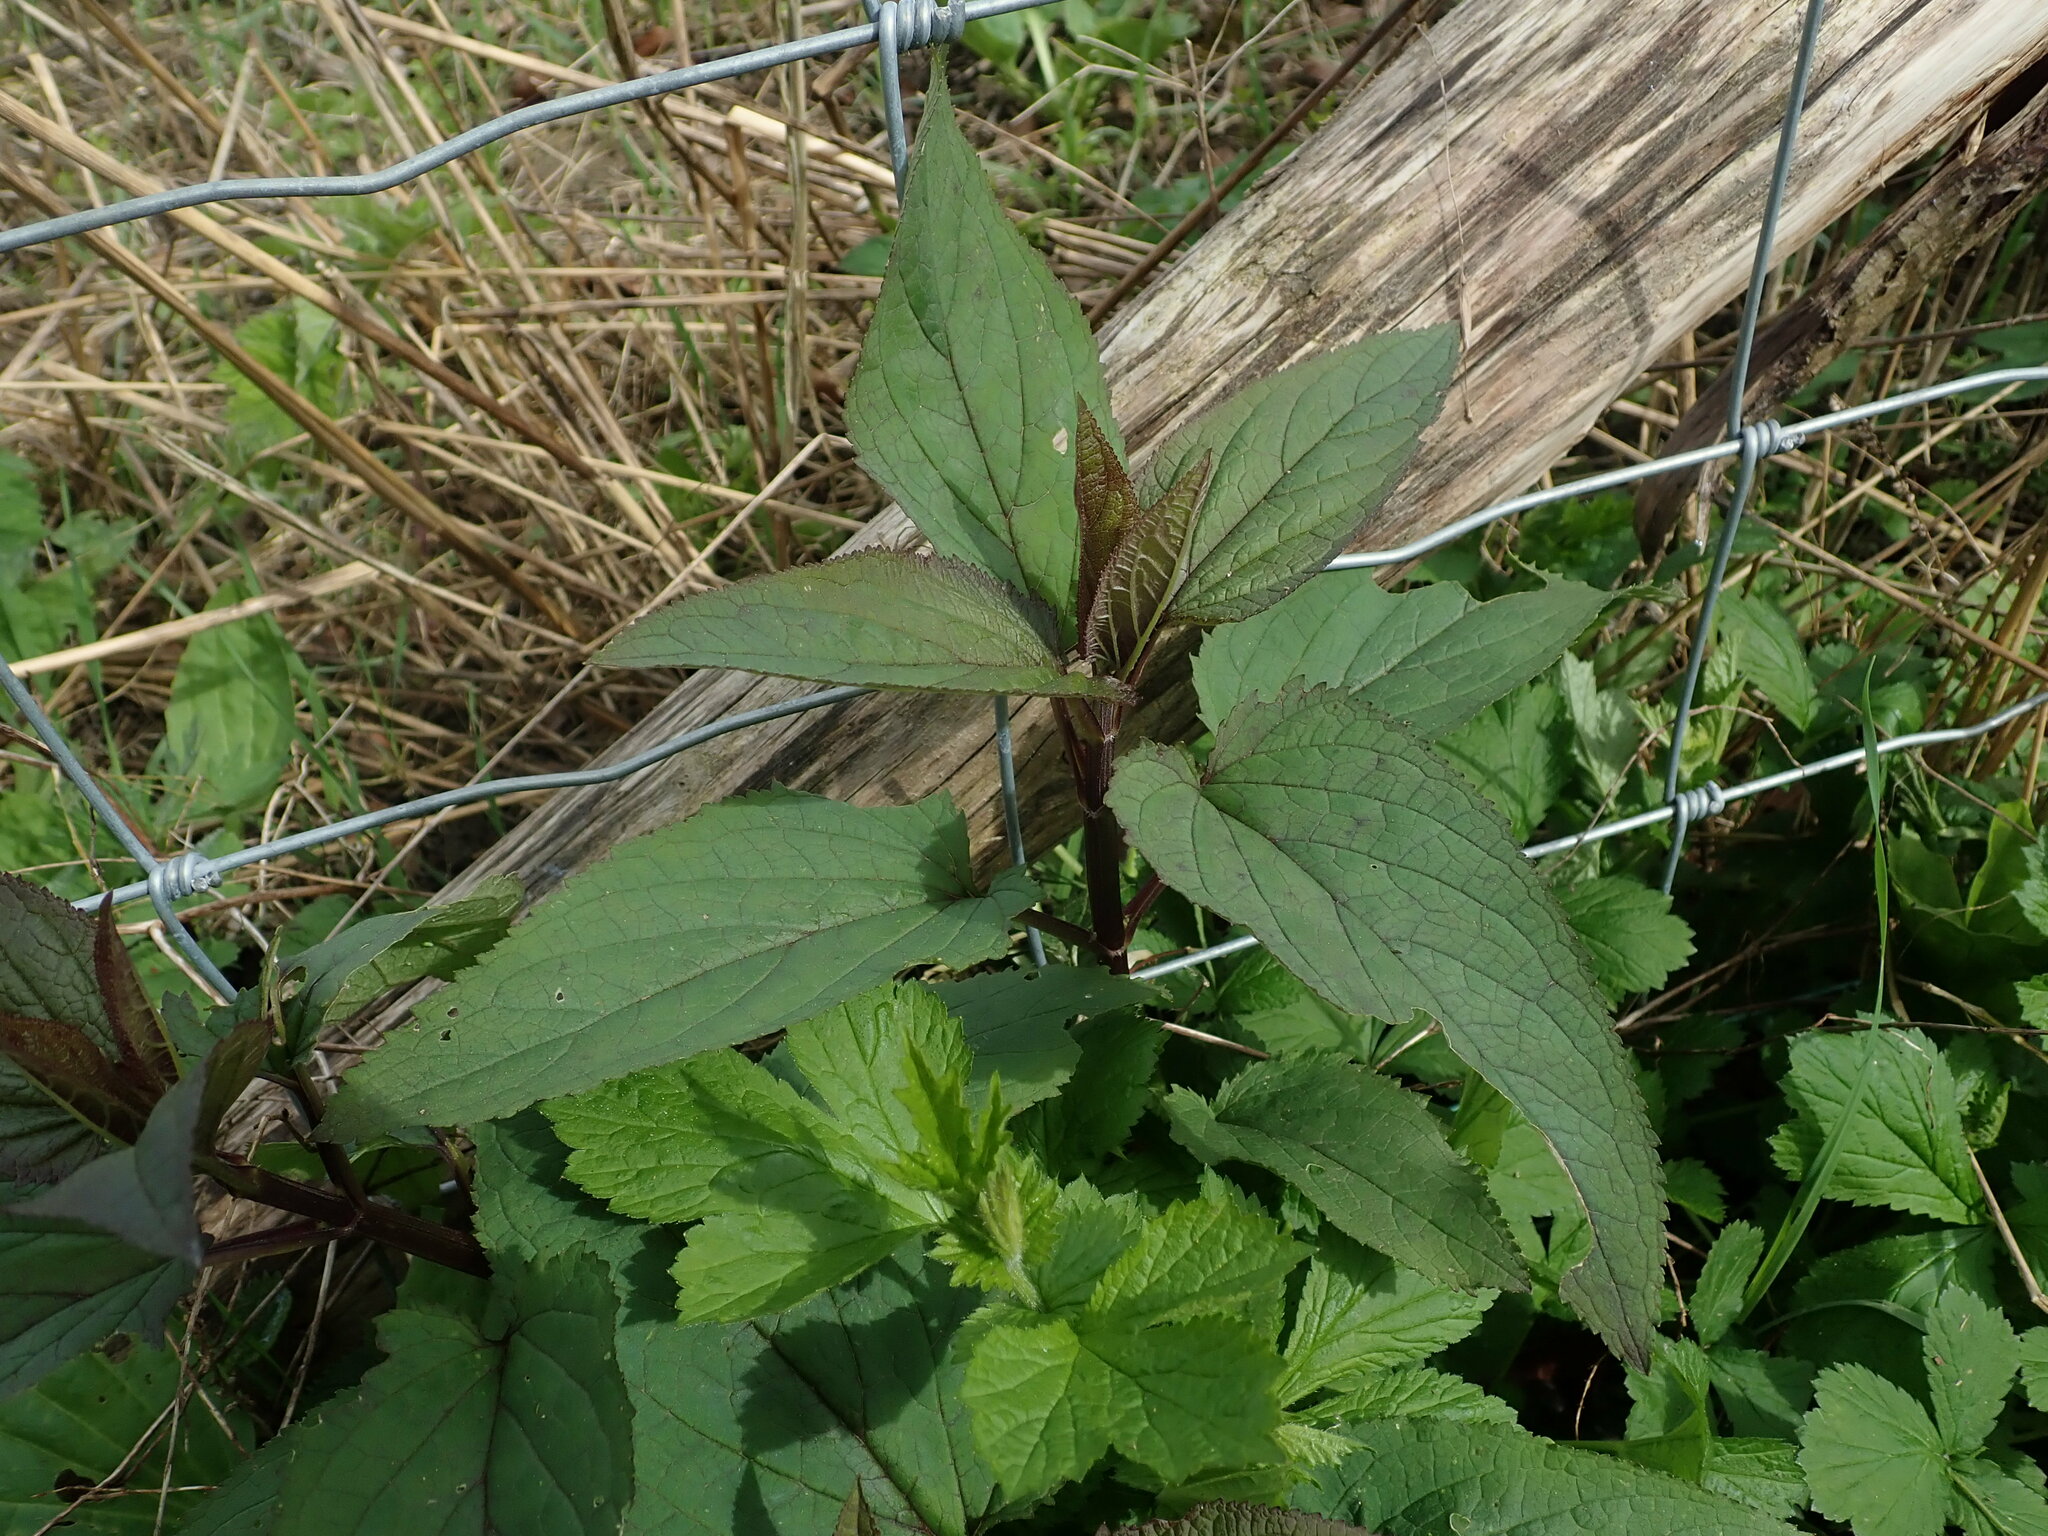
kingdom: Plantae
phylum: Tracheophyta
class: Magnoliopsida
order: Lamiales
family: Scrophulariaceae
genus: Scrophularia
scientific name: Scrophularia nodosa
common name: Common figwort
